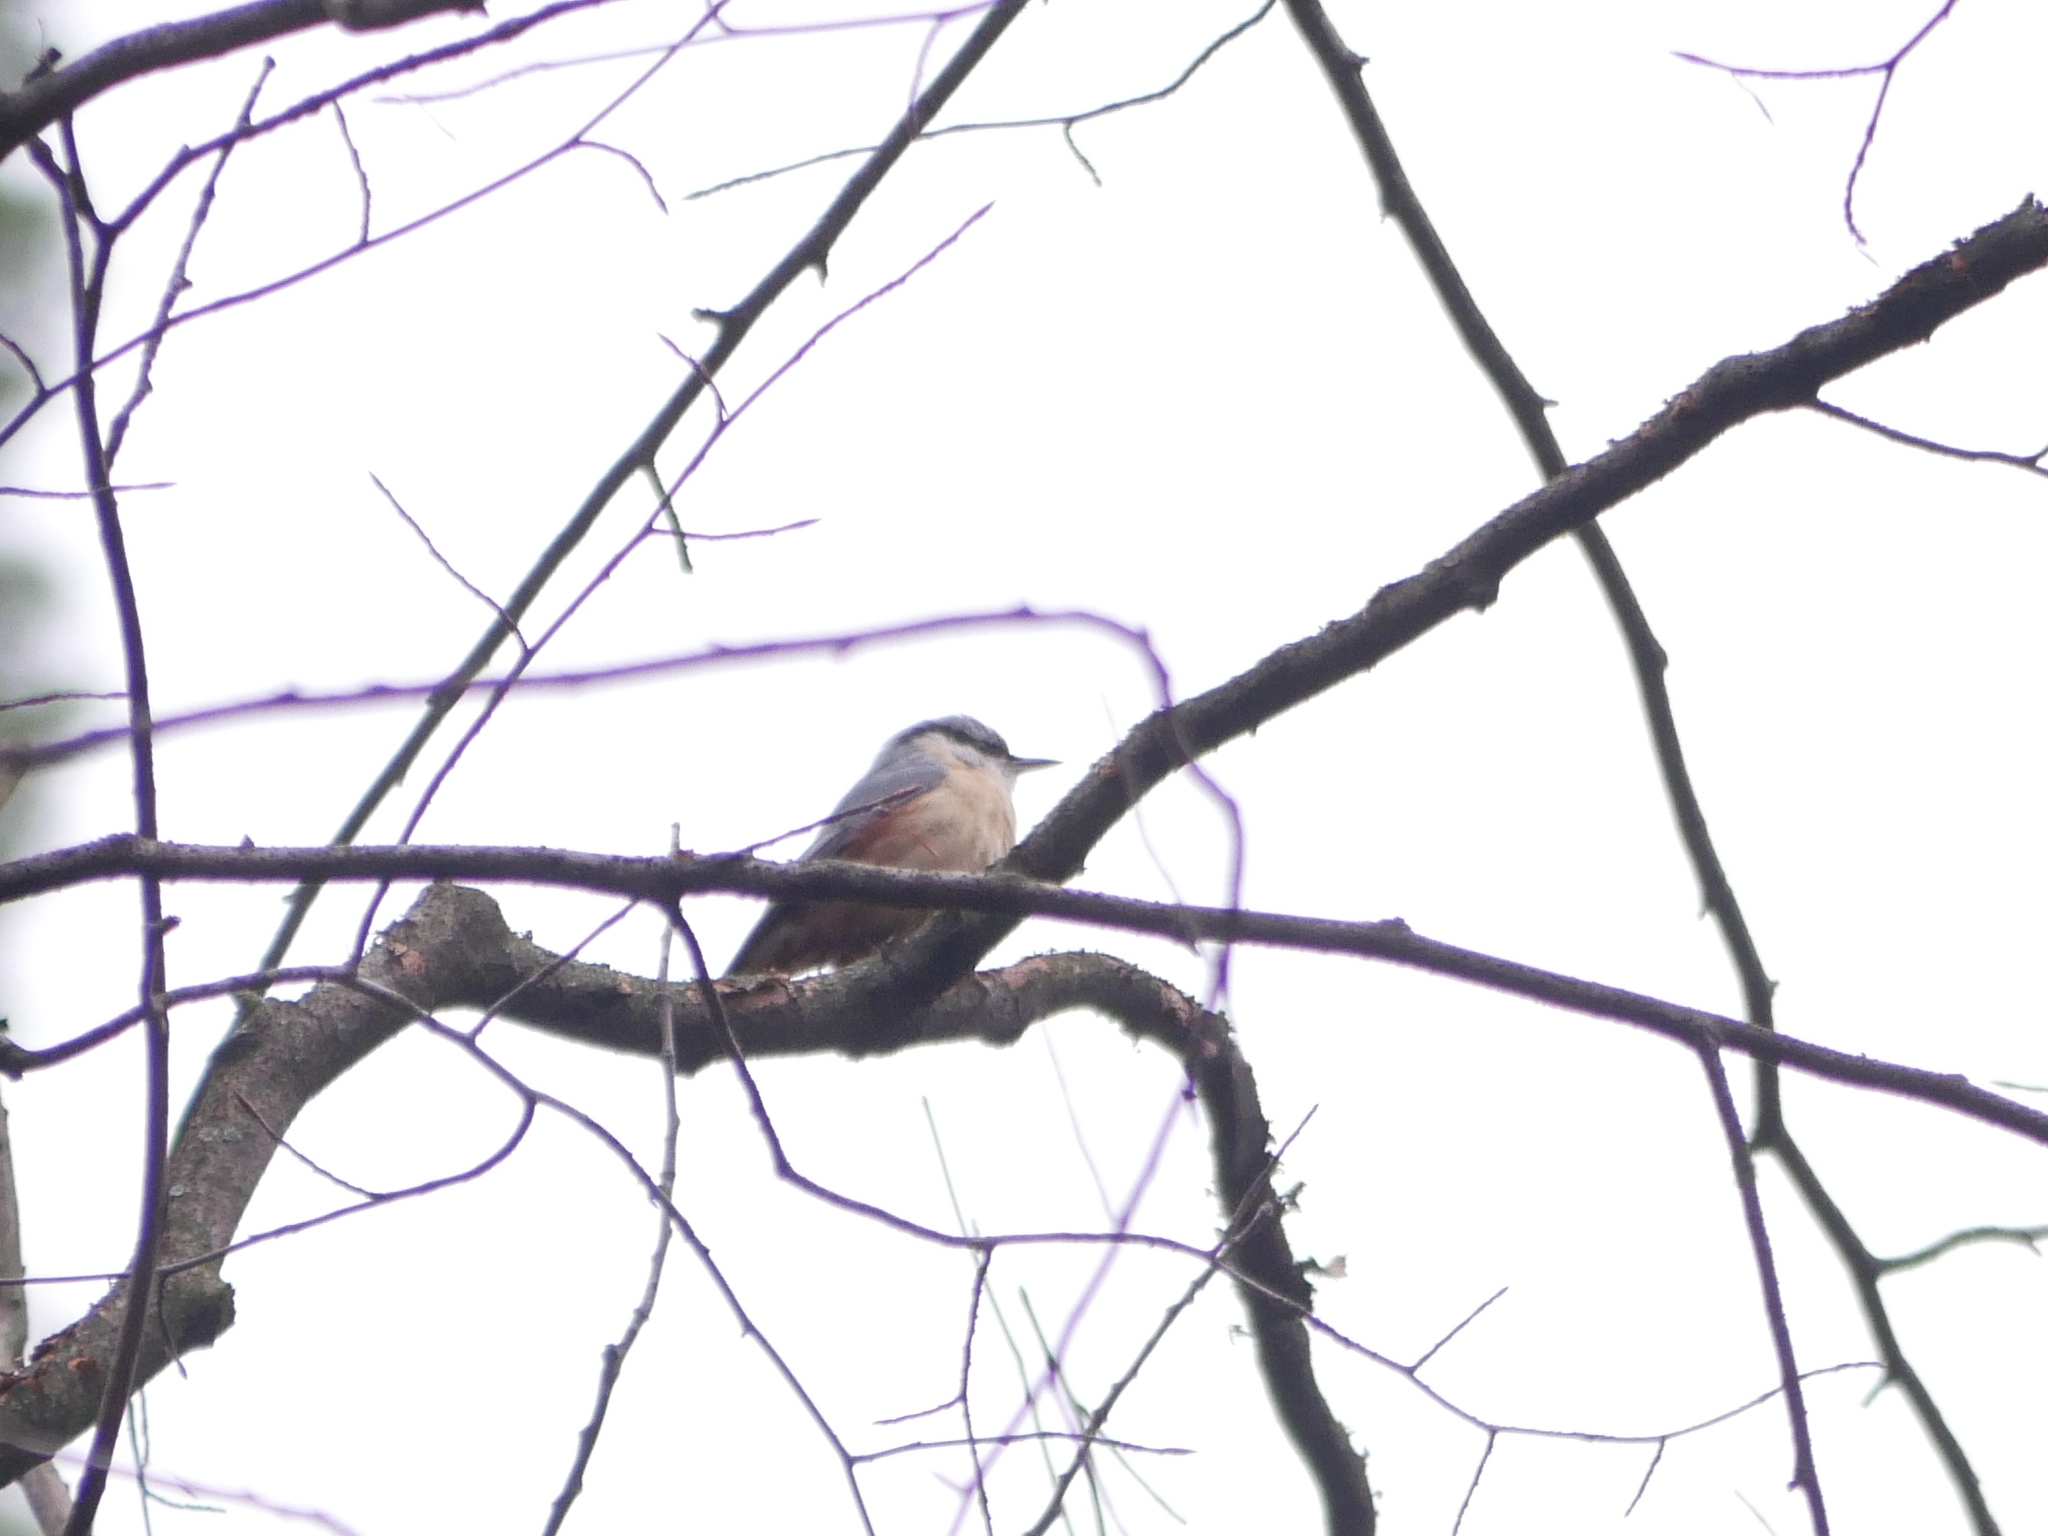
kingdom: Animalia
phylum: Chordata
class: Aves
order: Passeriformes
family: Sittidae
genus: Sitta
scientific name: Sitta europaea
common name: Eurasian nuthatch
